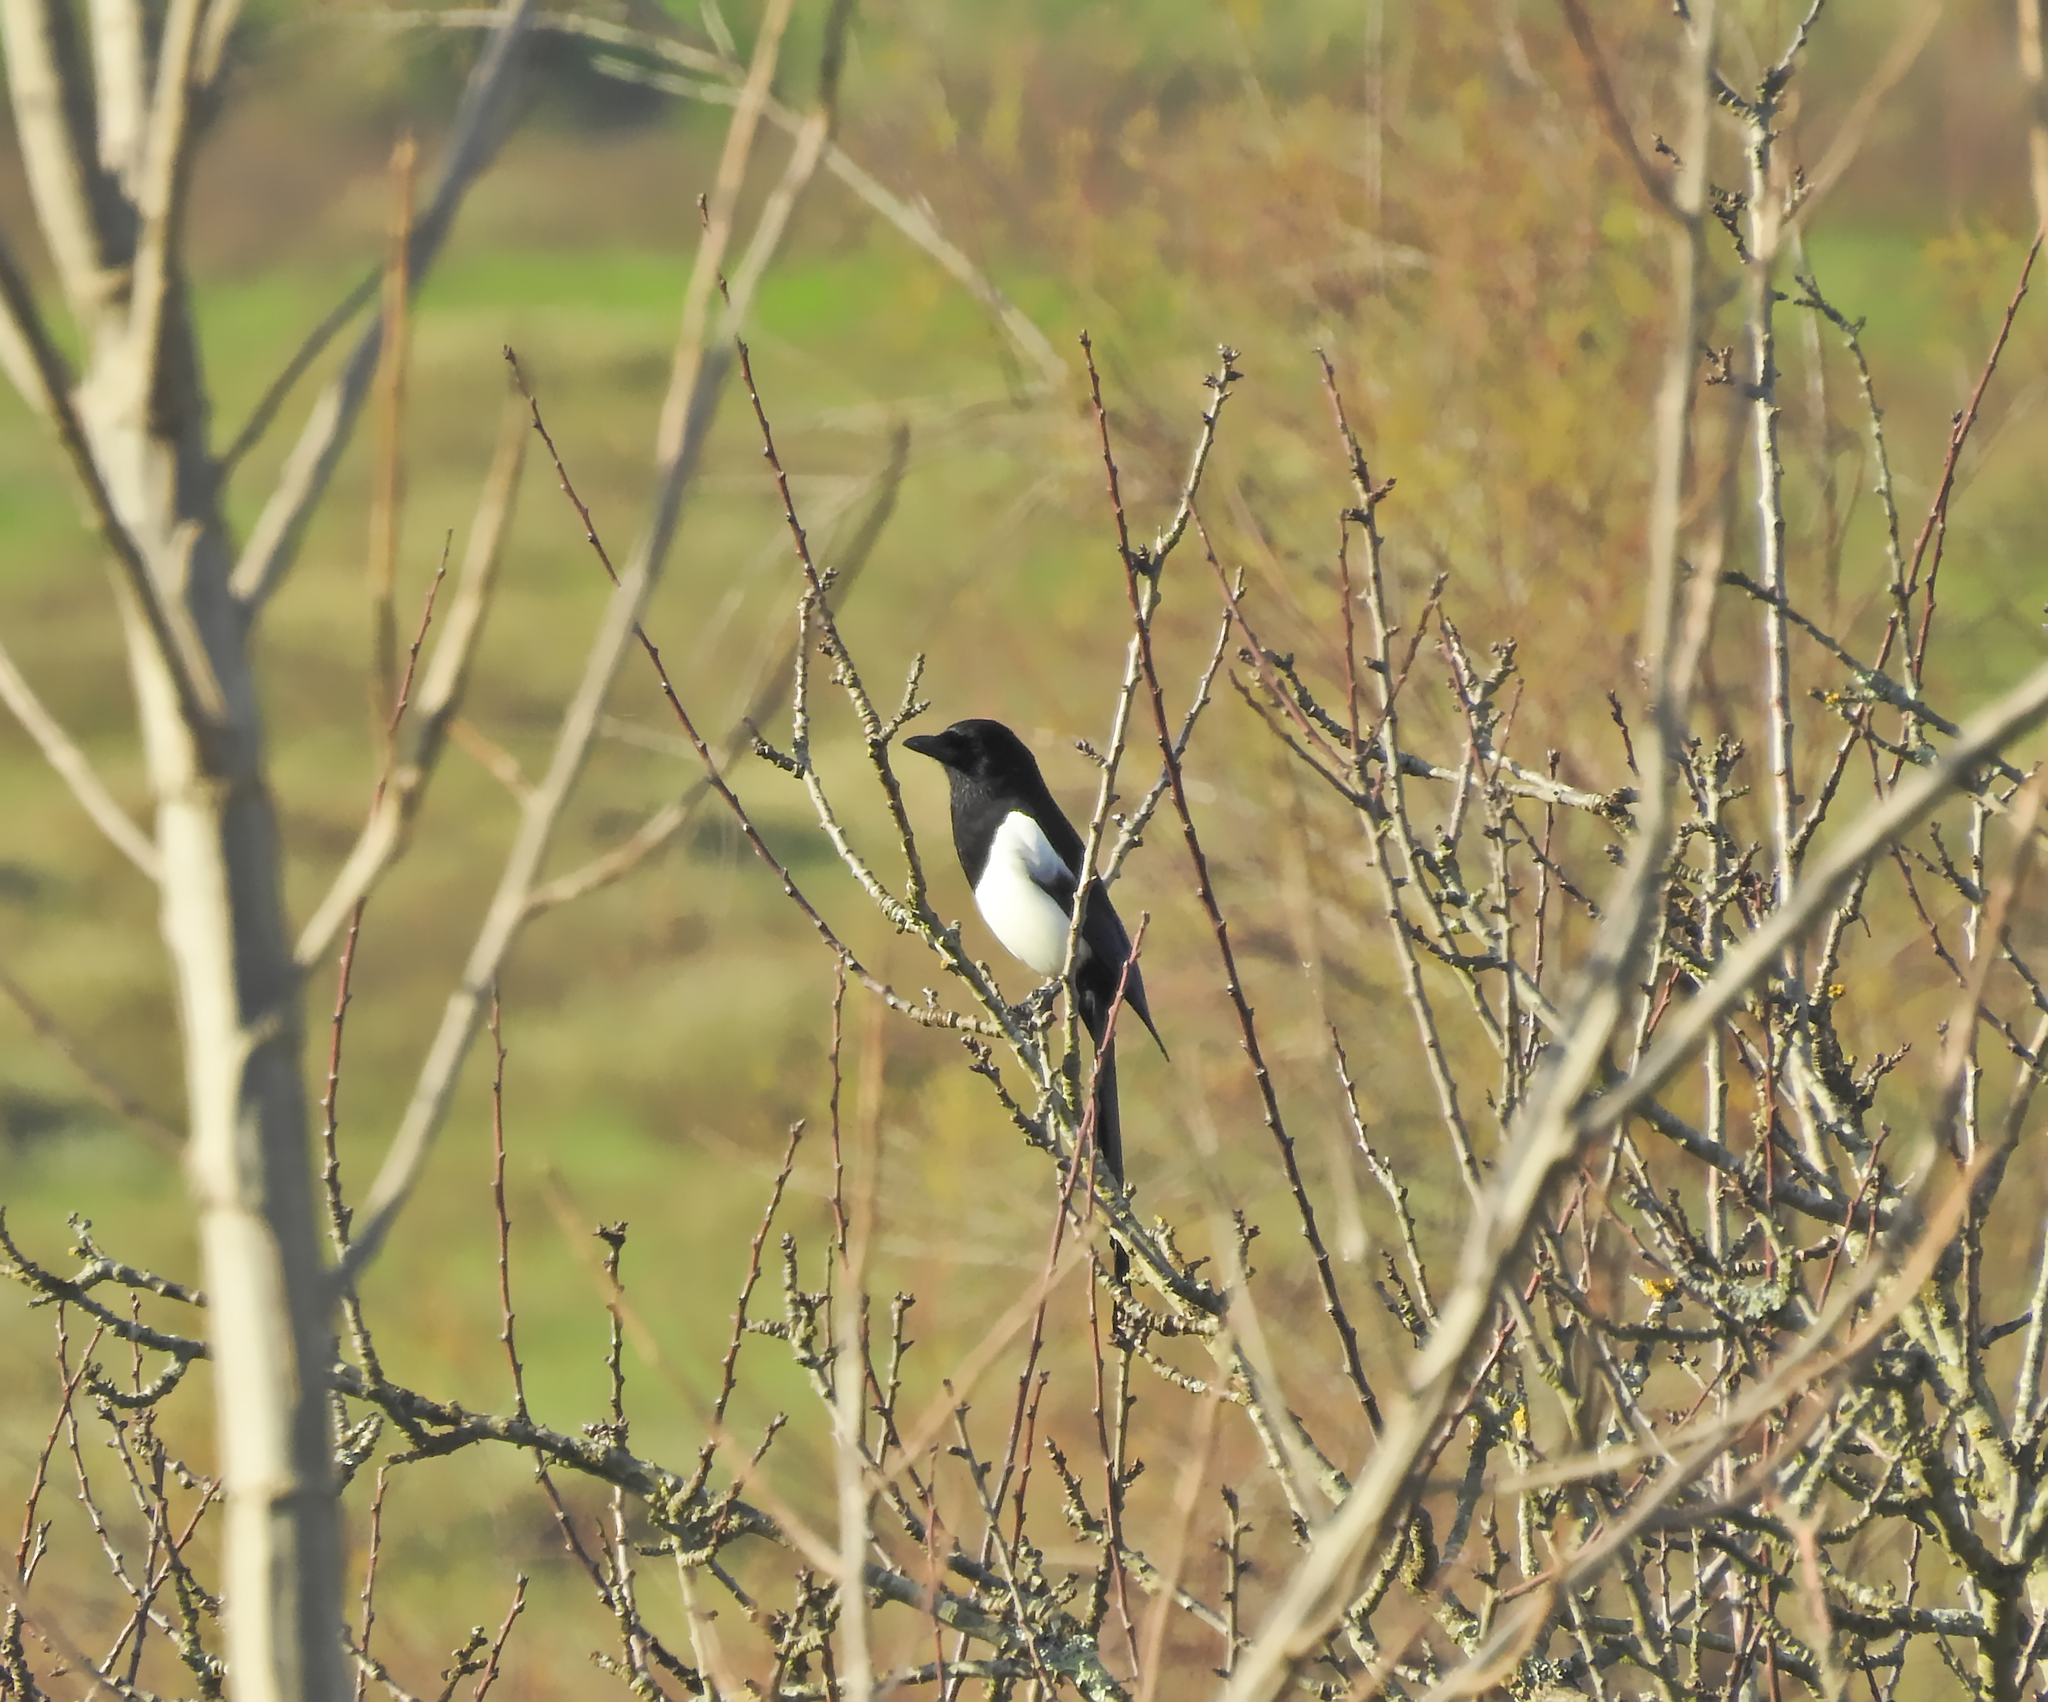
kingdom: Animalia
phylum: Chordata
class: Aves
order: Passeriformes
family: Corvidae
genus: Pica
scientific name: Pica pica
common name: Eurasian magpie
